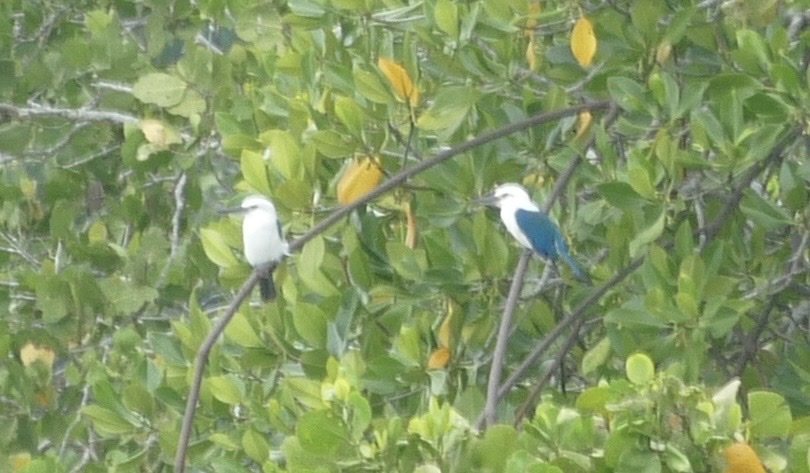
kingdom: Animalia
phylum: Chordata
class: Aves
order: Coraciiformes
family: Alcedinidae
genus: Todiramphus
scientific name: Todiramphus saurophagus
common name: Beach kingfisher
